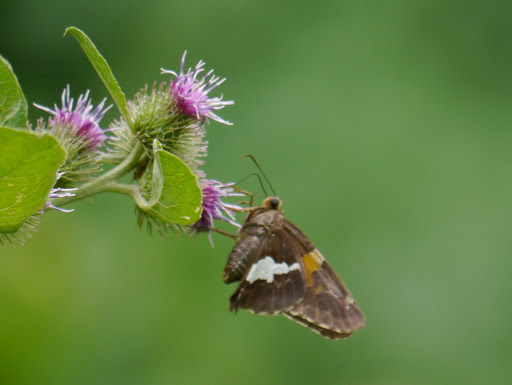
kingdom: Animalia
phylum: Arthropoda
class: Insecta
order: Lepidoptera
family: Hesperiidae
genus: Epargyreus
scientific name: Epargyreus clarus
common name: Silver-spotted skipper
